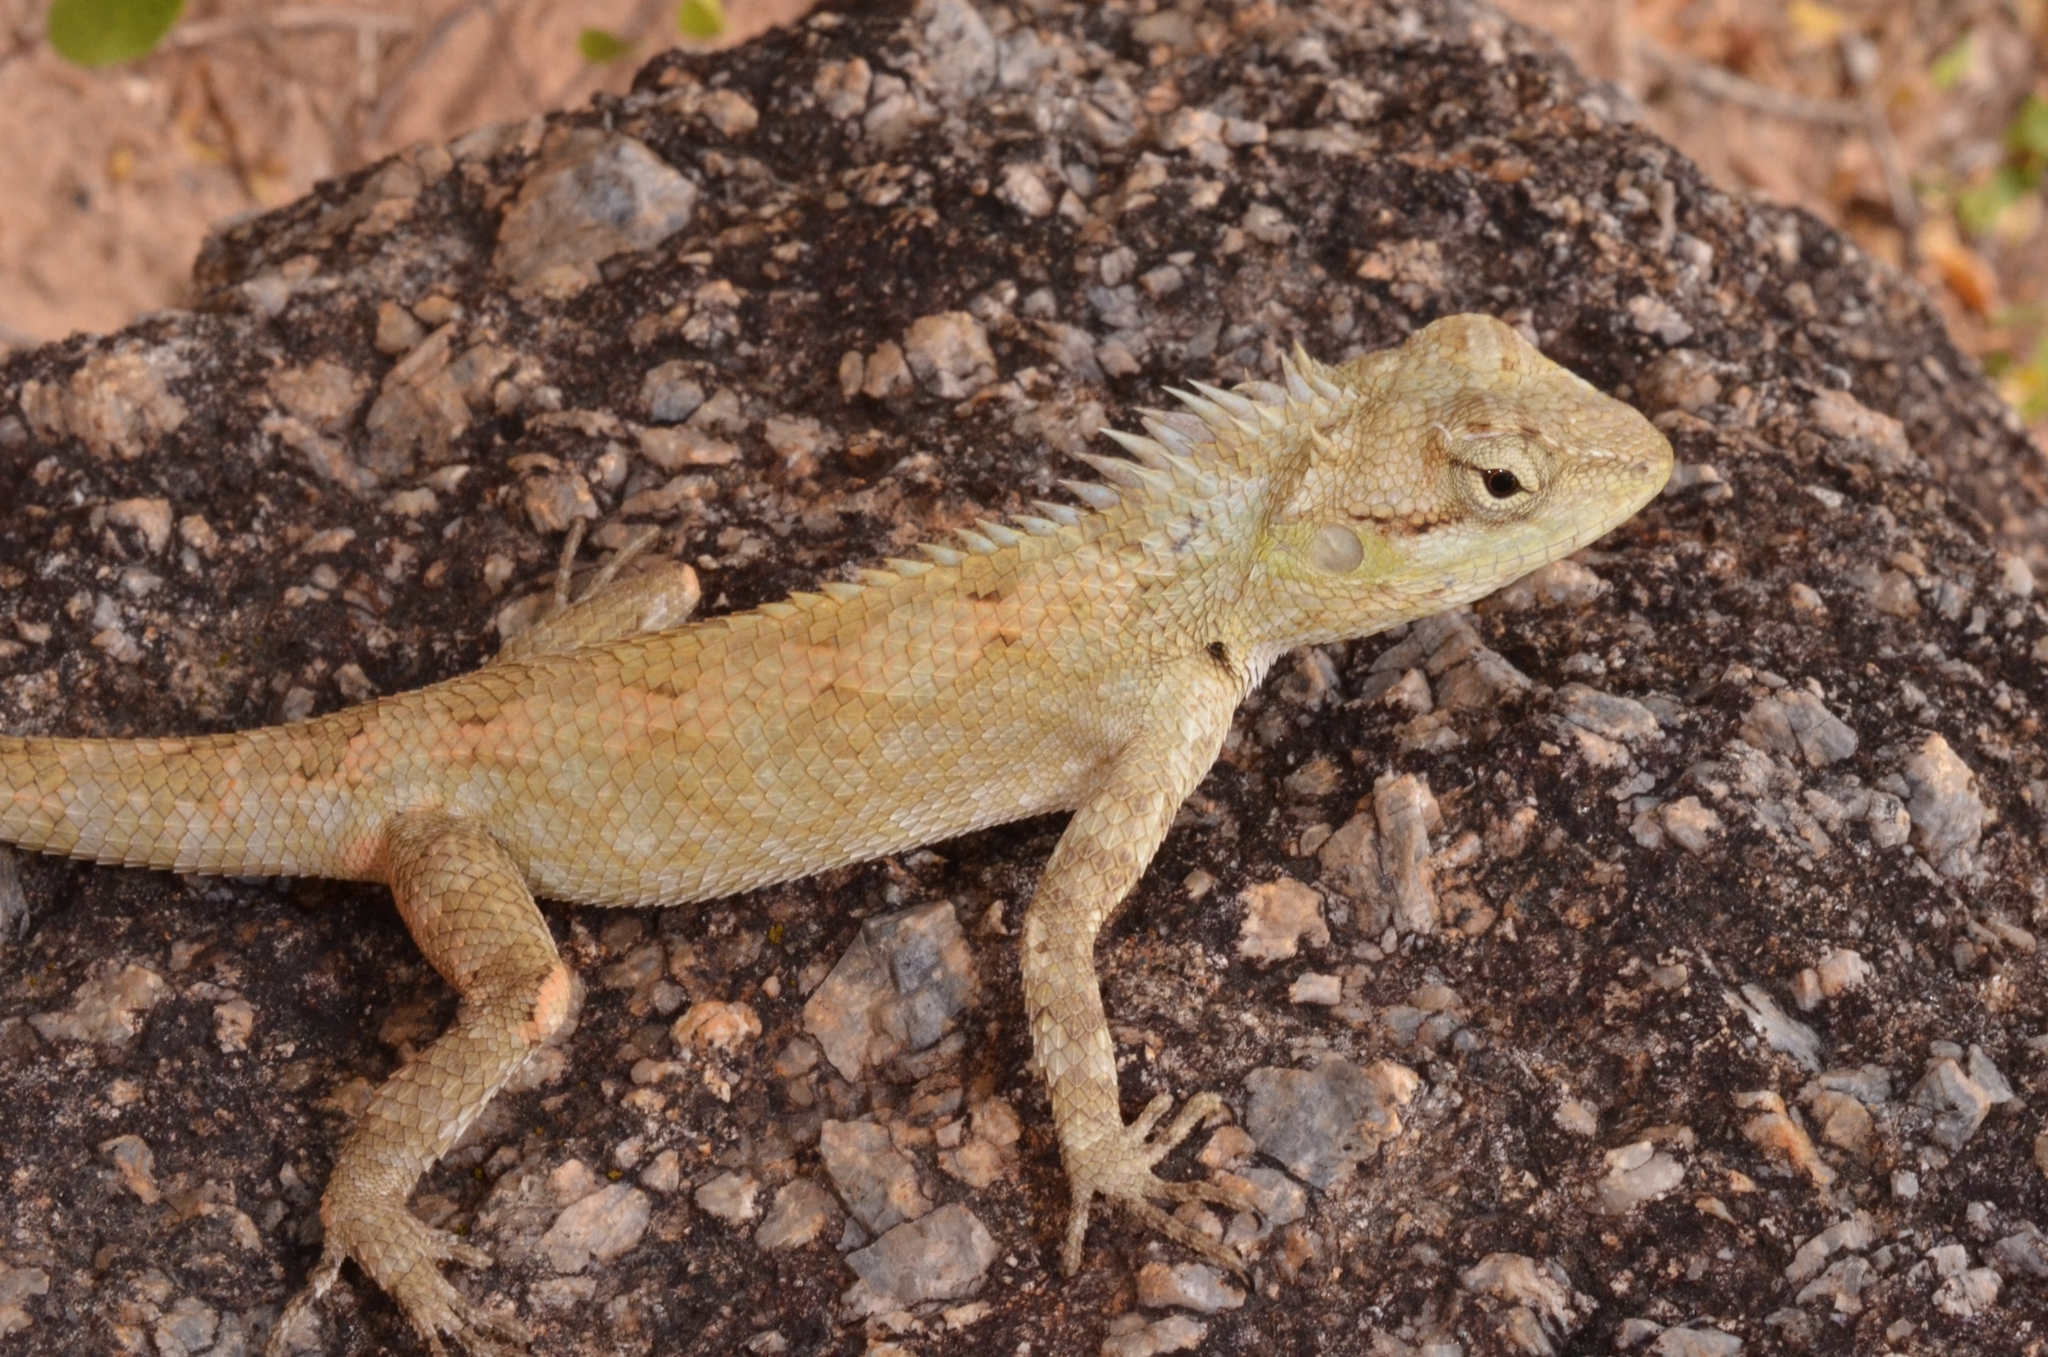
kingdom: Animalia
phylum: Chordata
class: Squamata
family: Agamidae
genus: Calotes
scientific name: Calotes bachae
